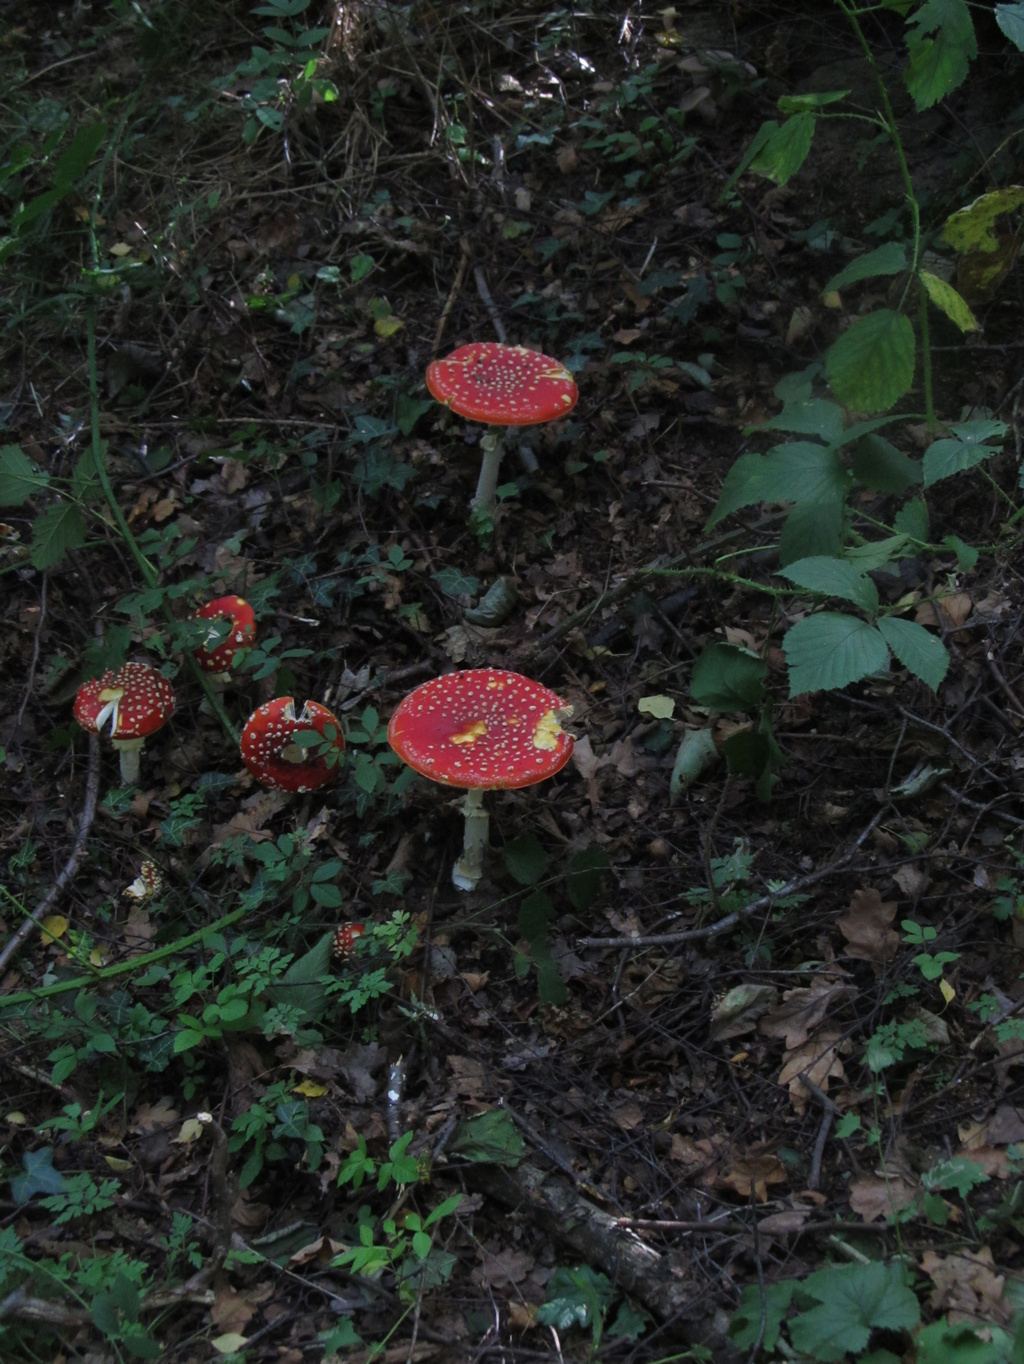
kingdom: Fungi
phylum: Basidiomycota
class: Agaricomycetes
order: Agaricales
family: Amanitaceae
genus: Amanita
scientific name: Amanita muscaria
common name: Fly agaric
